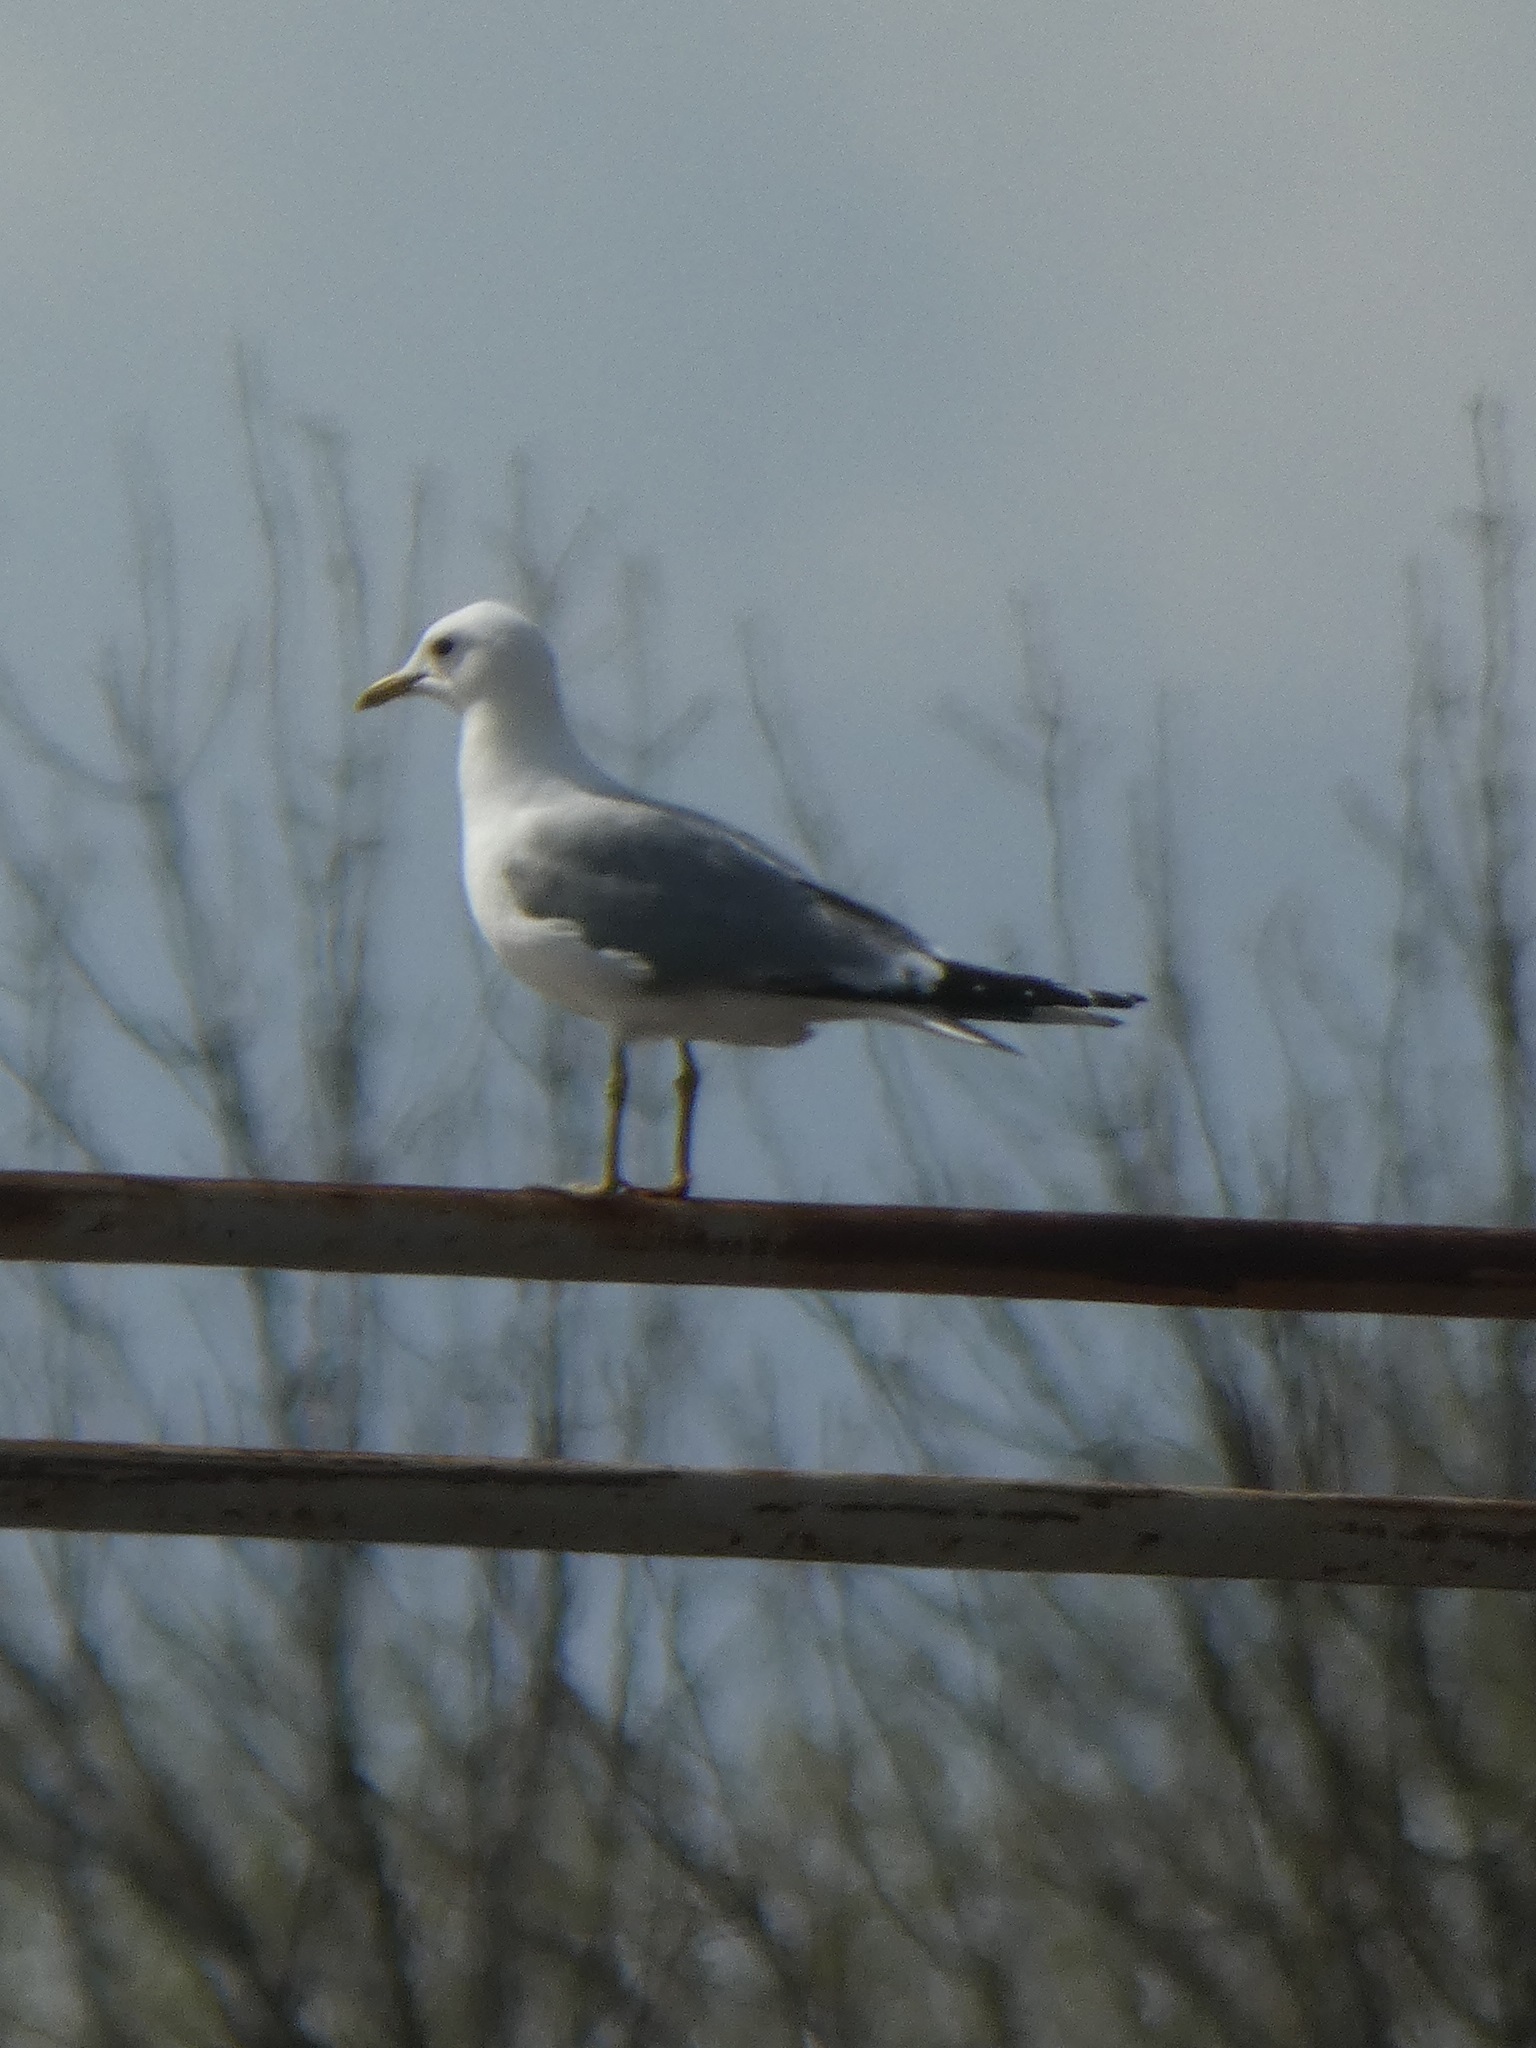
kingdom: Animalia
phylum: Chordata
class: Aves
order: Charadriiformes
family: Laridae
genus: Larus
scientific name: Larus canus
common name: Mew gull
